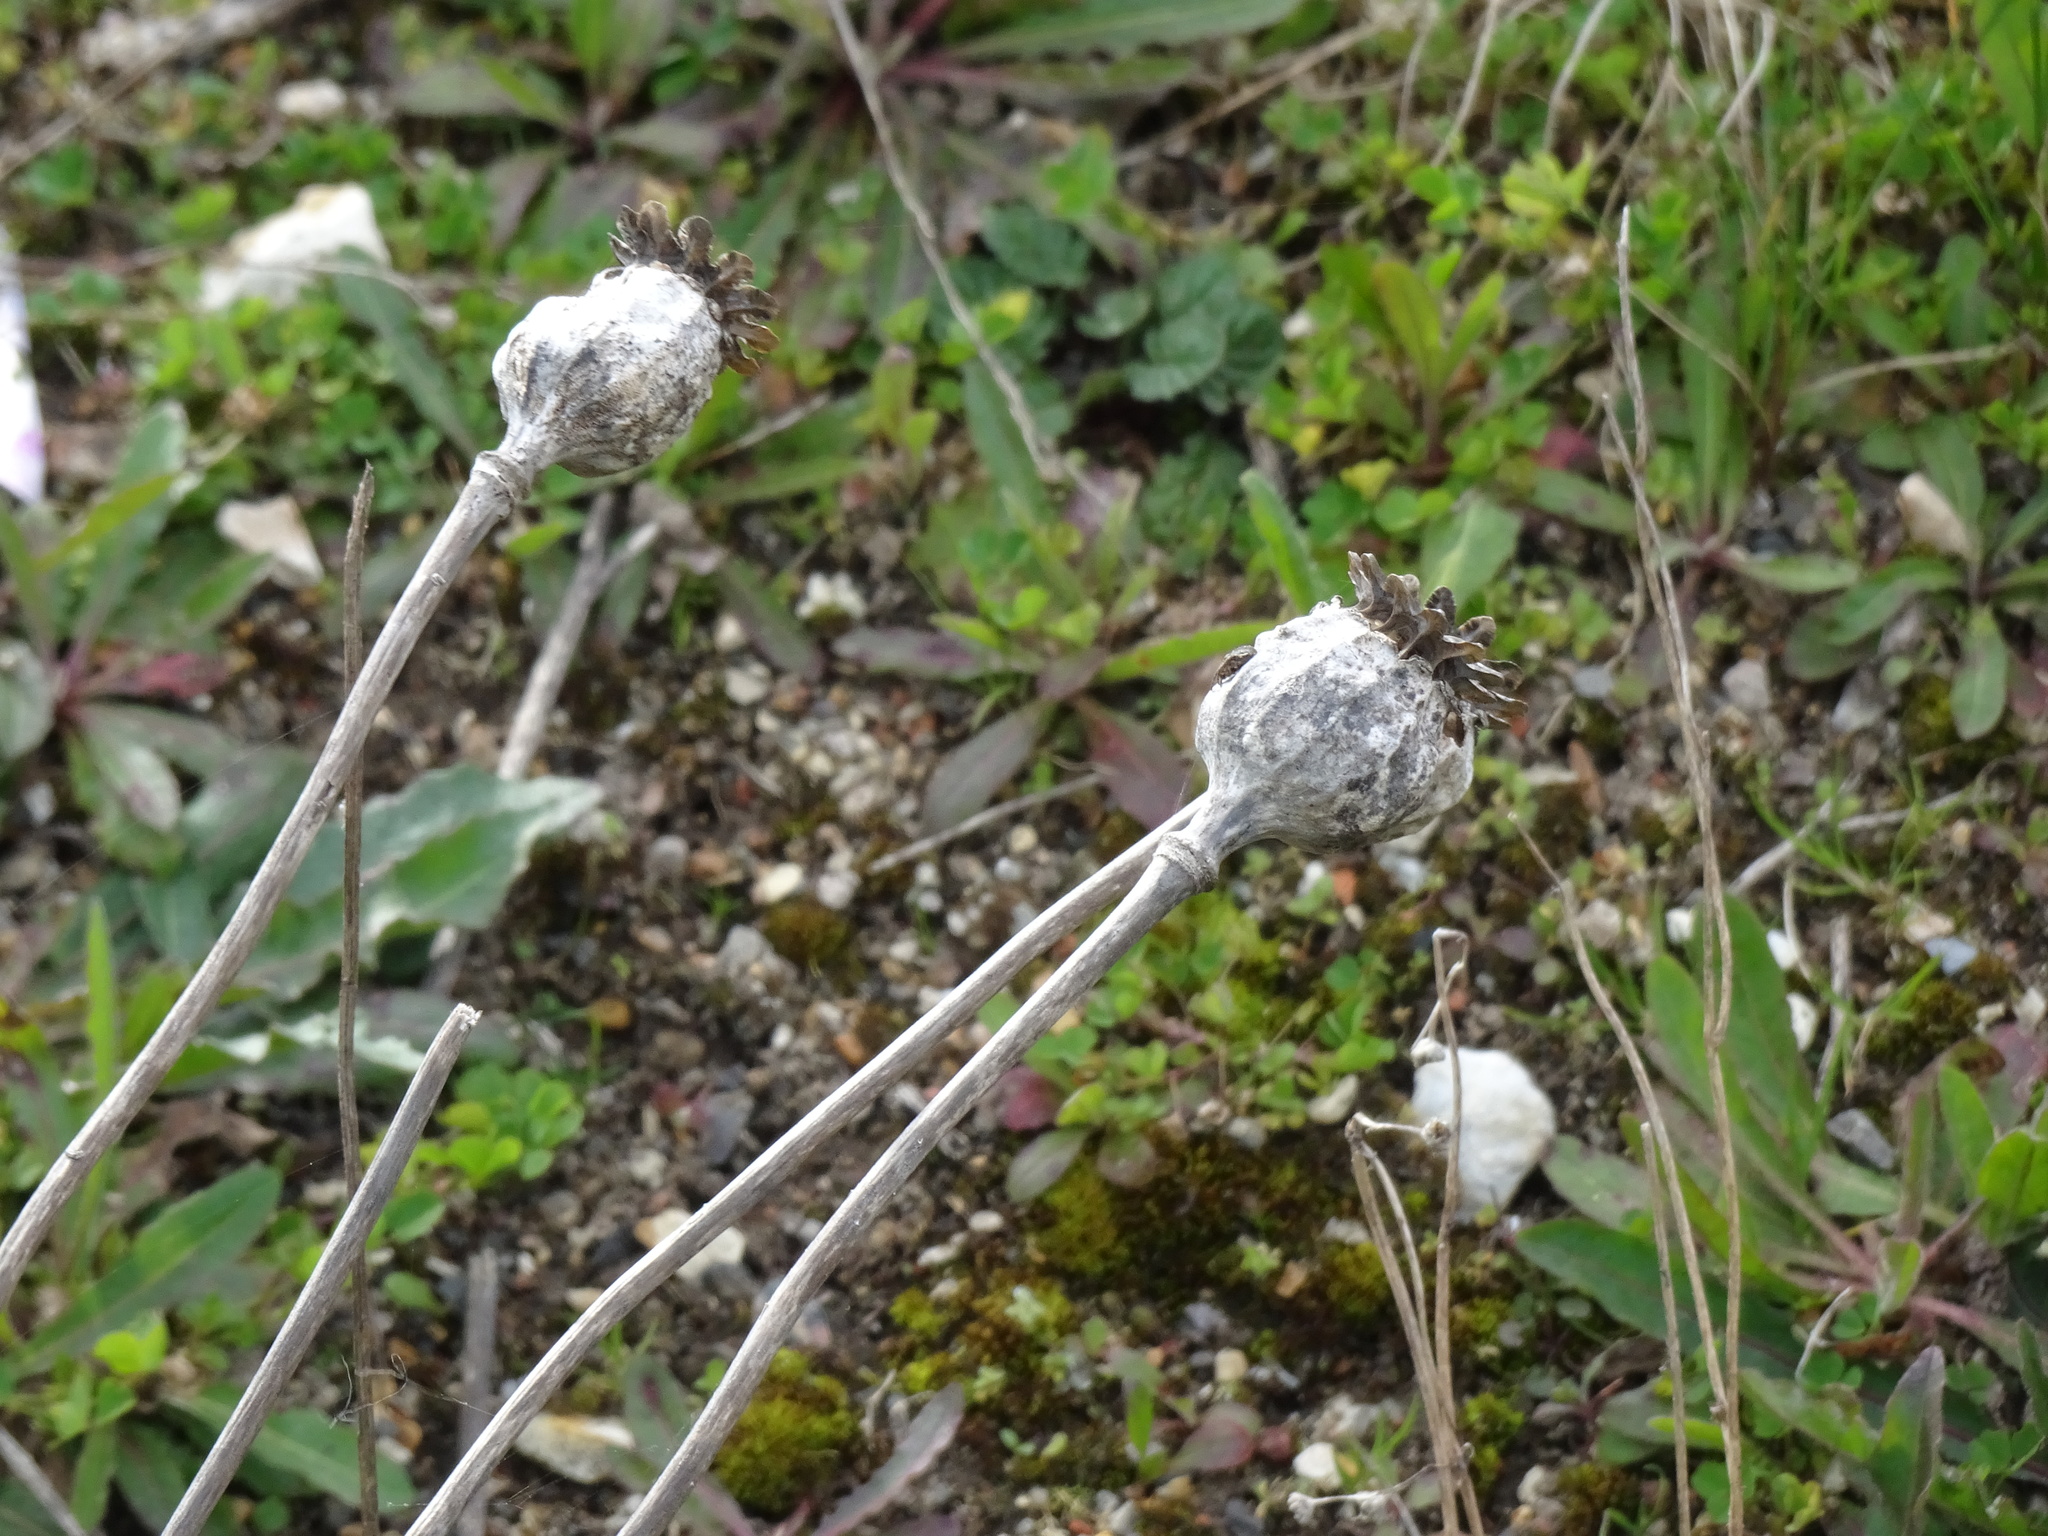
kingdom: Plantae
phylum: Tracheophyta
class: Magnoliopsida
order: Ranunculales
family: Papaveraceae
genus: Papaver
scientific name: Papaver somniferum
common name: Opium poppy
